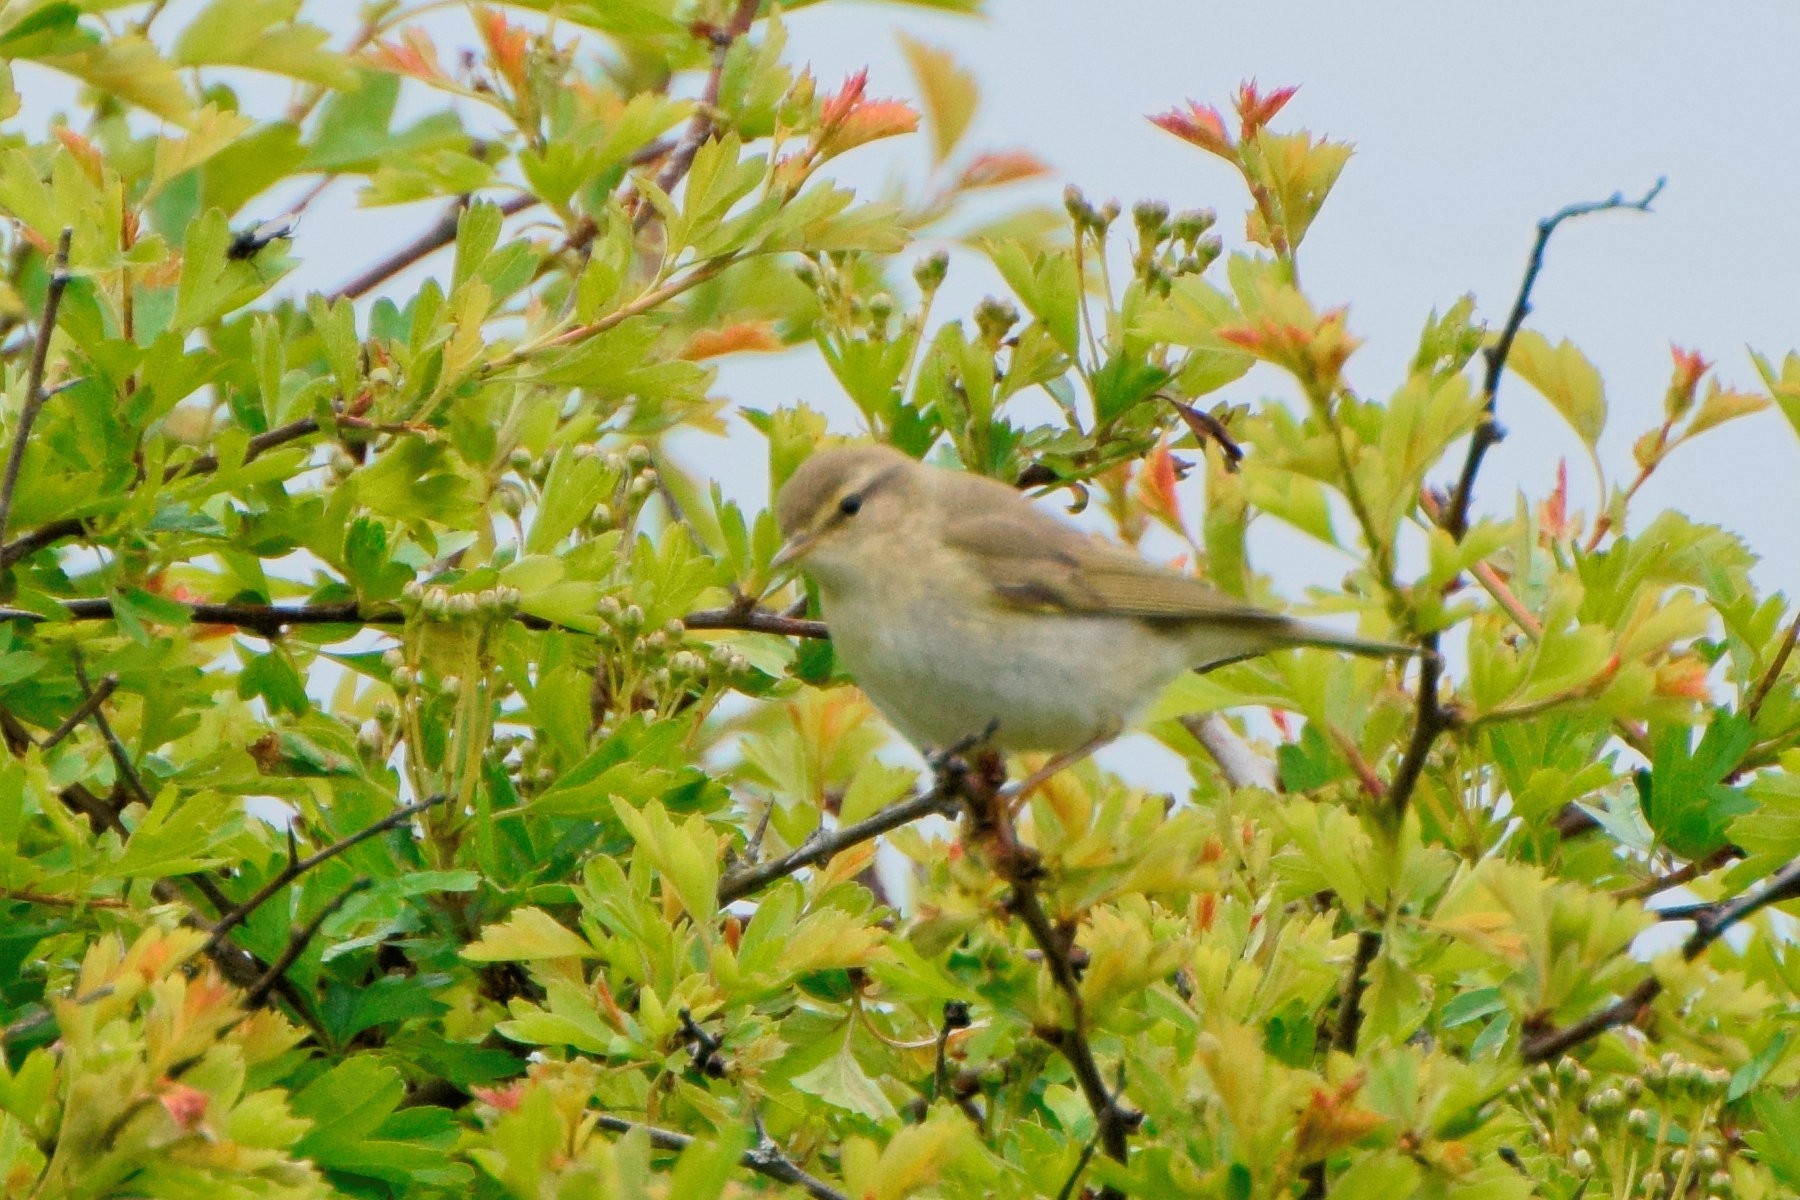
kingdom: Animalia
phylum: Chordata
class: Aves
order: Passeriformes
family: Phylloscopidae
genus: Phylloscopus
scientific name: Phylloscopus collybita
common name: Common chiffchaff
